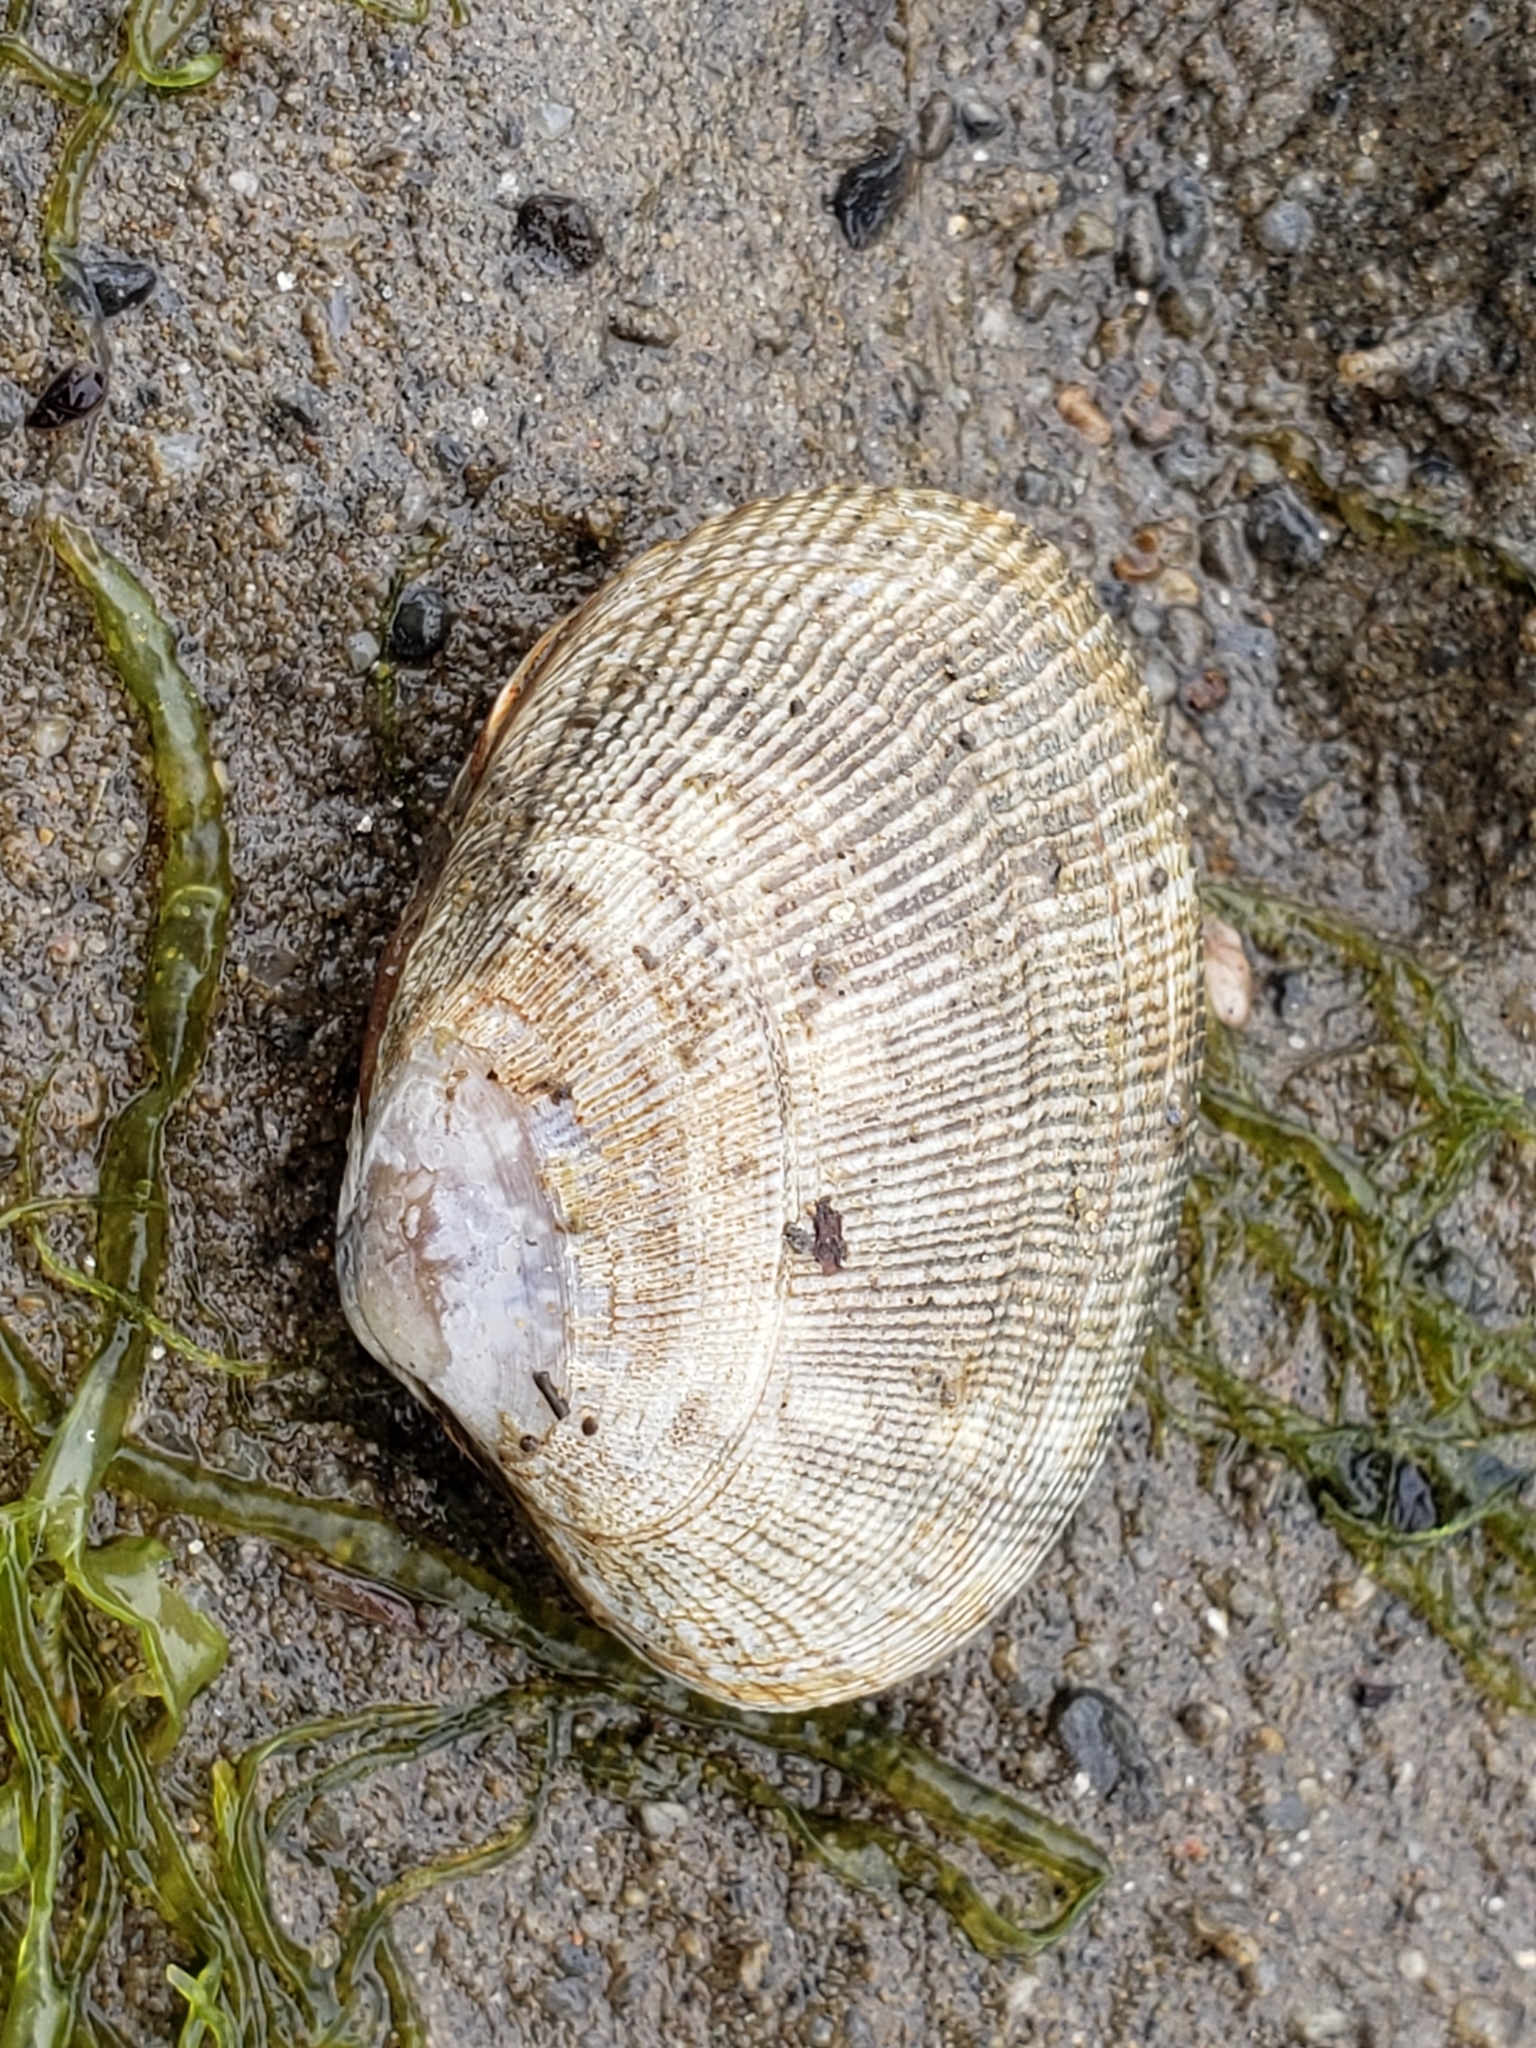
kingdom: Animalia
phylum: Mollusca
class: Bivalvia
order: Venerida
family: Veneridae
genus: Ruditapes
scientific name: Ruditapes philippinarum
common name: Manila clam
